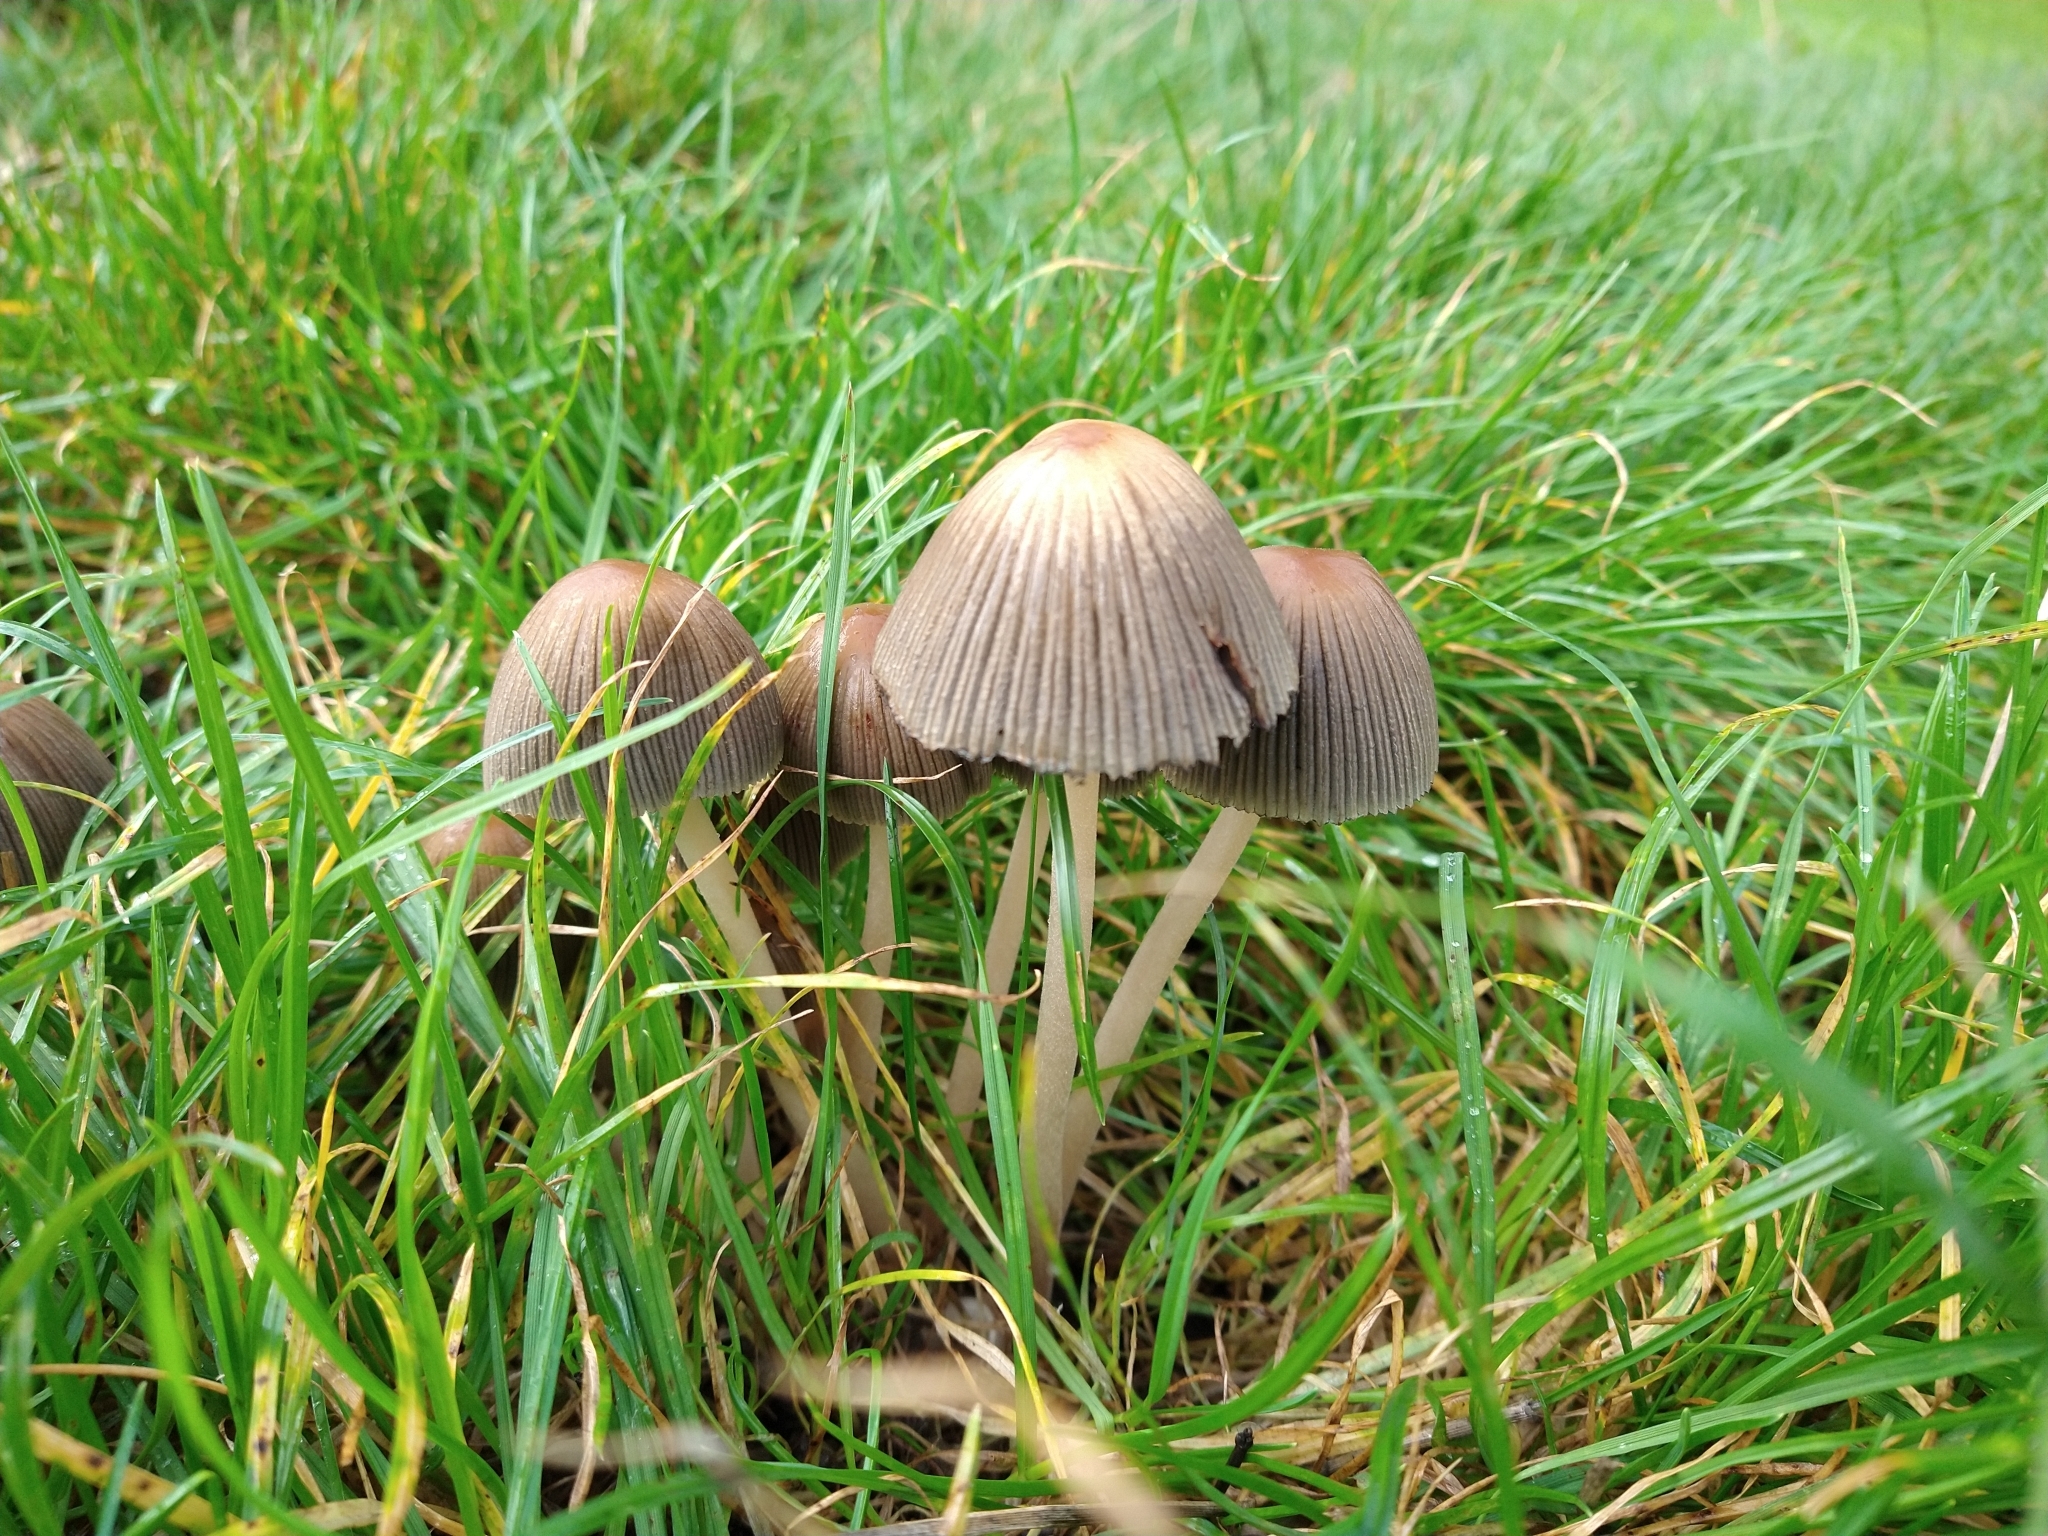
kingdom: Fungi
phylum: Basidiomycota
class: Agaricomycetes
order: Agaricales
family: Psathyrellaceae
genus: Parasola
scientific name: Parasola plicatilis
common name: Pleated inkcap
